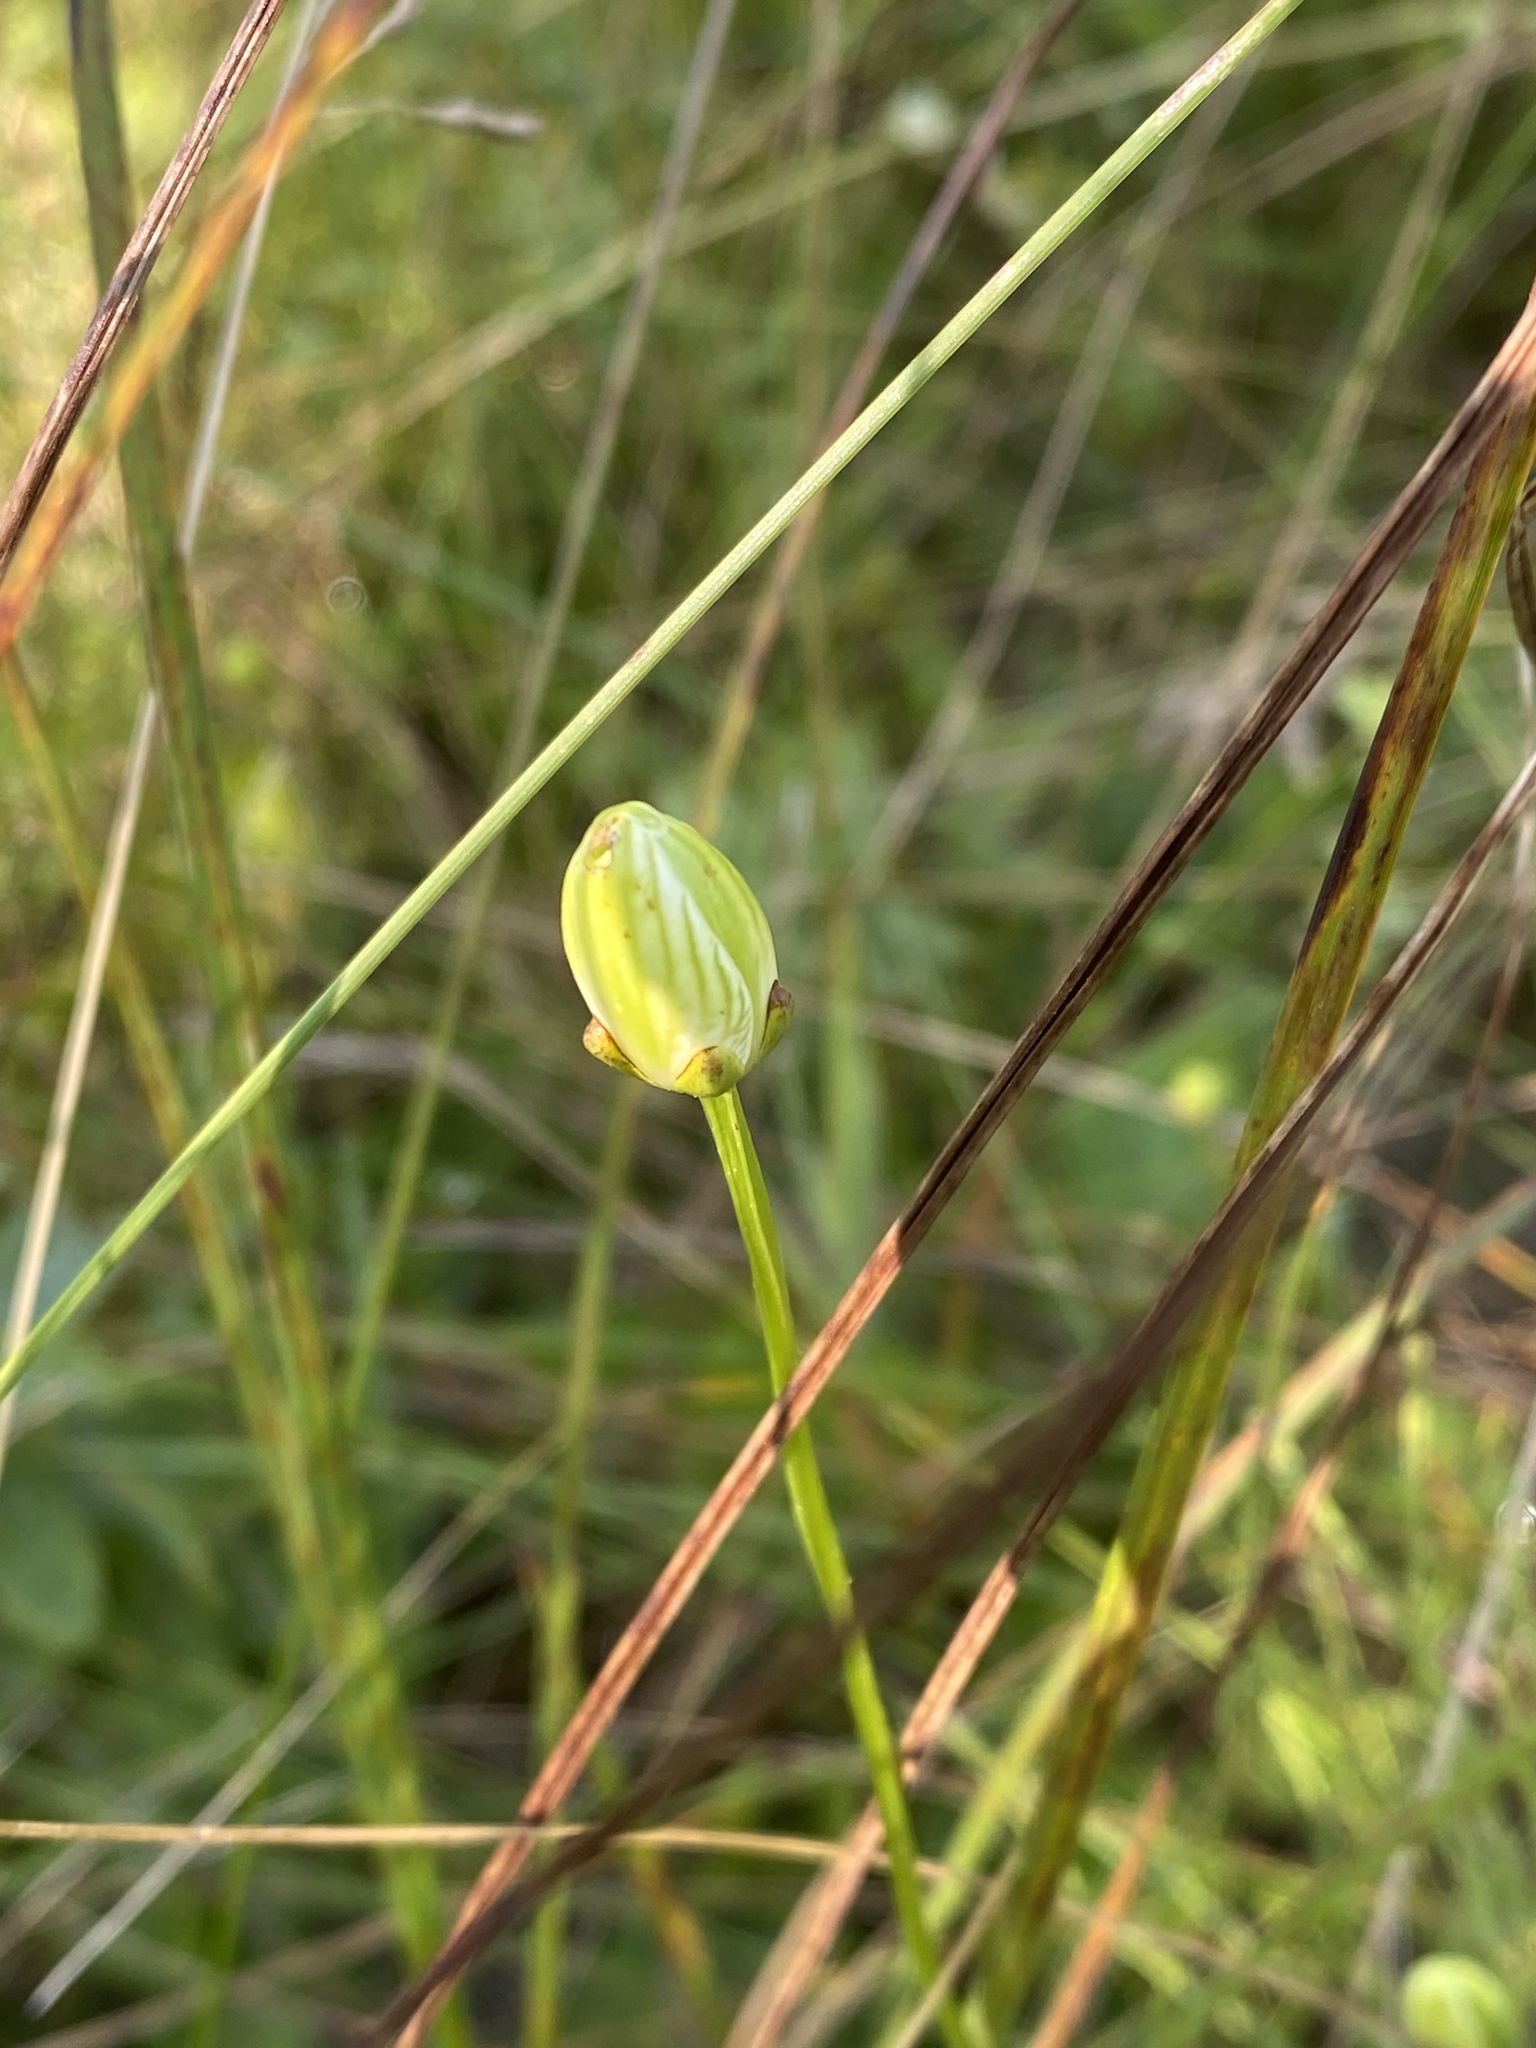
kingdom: Plantae
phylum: Tracheophyta
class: Magnoliopsida
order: Celastrales
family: Parnassiaceae
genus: Parnassia
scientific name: Parnassia glauca
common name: American grass-of-parnassus
